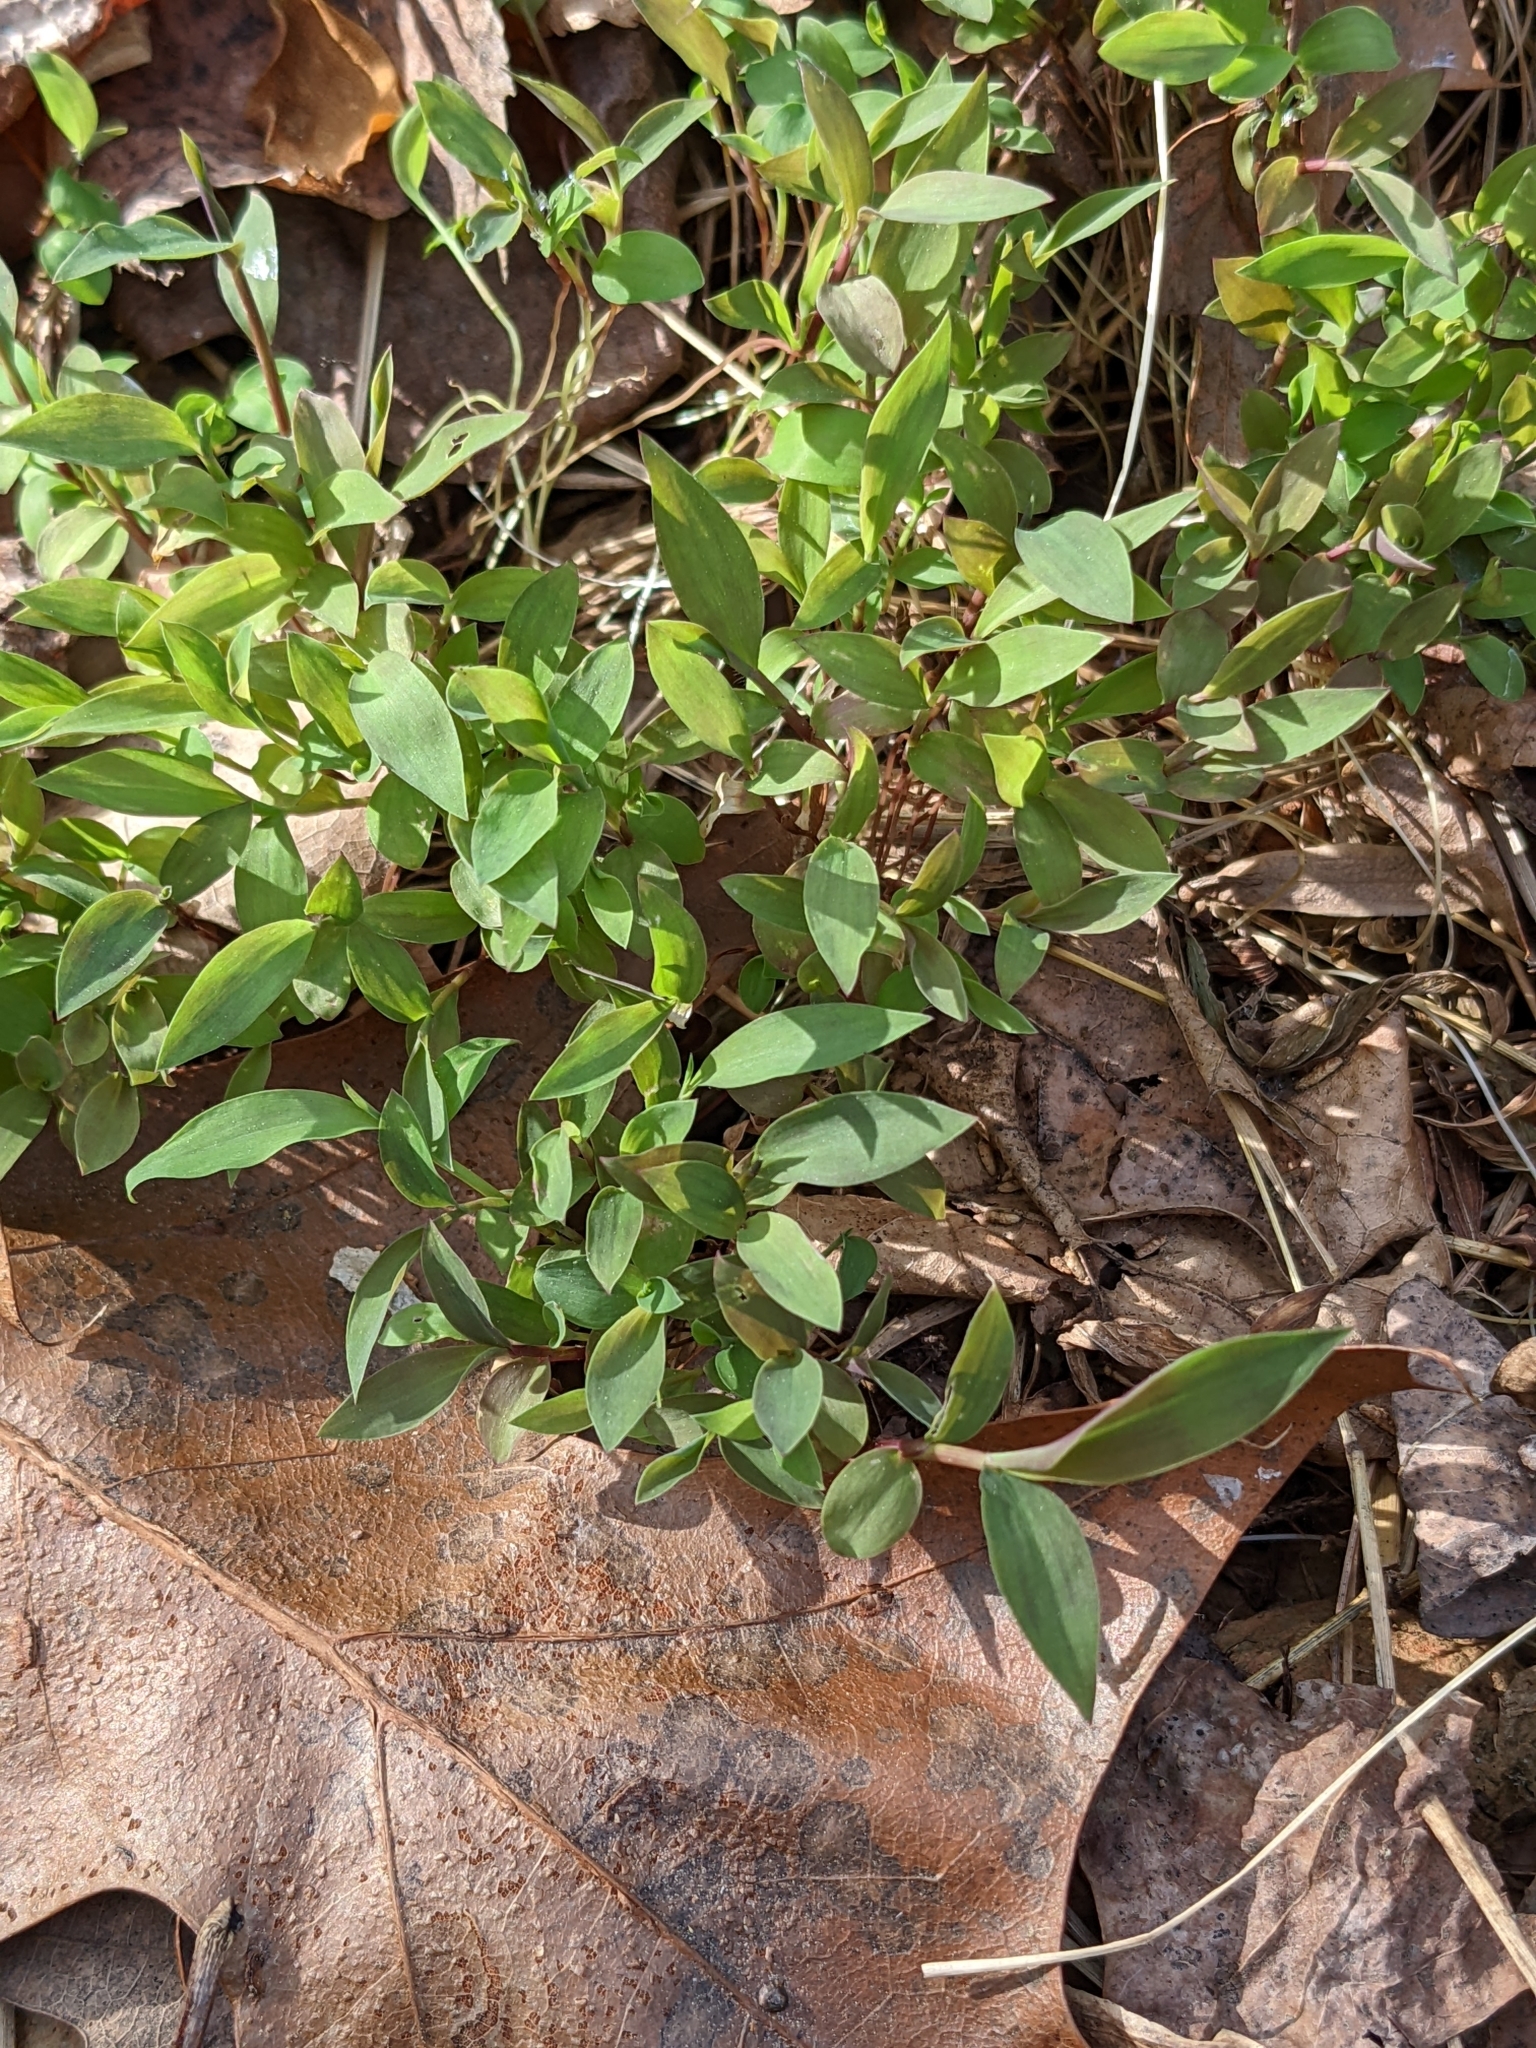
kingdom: Plantae
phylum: Tracheophyta
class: Liliopsida
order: Poales
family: Poaceae
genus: Microstegium
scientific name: Microstegium vimineum
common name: Japanese stiltgrass
